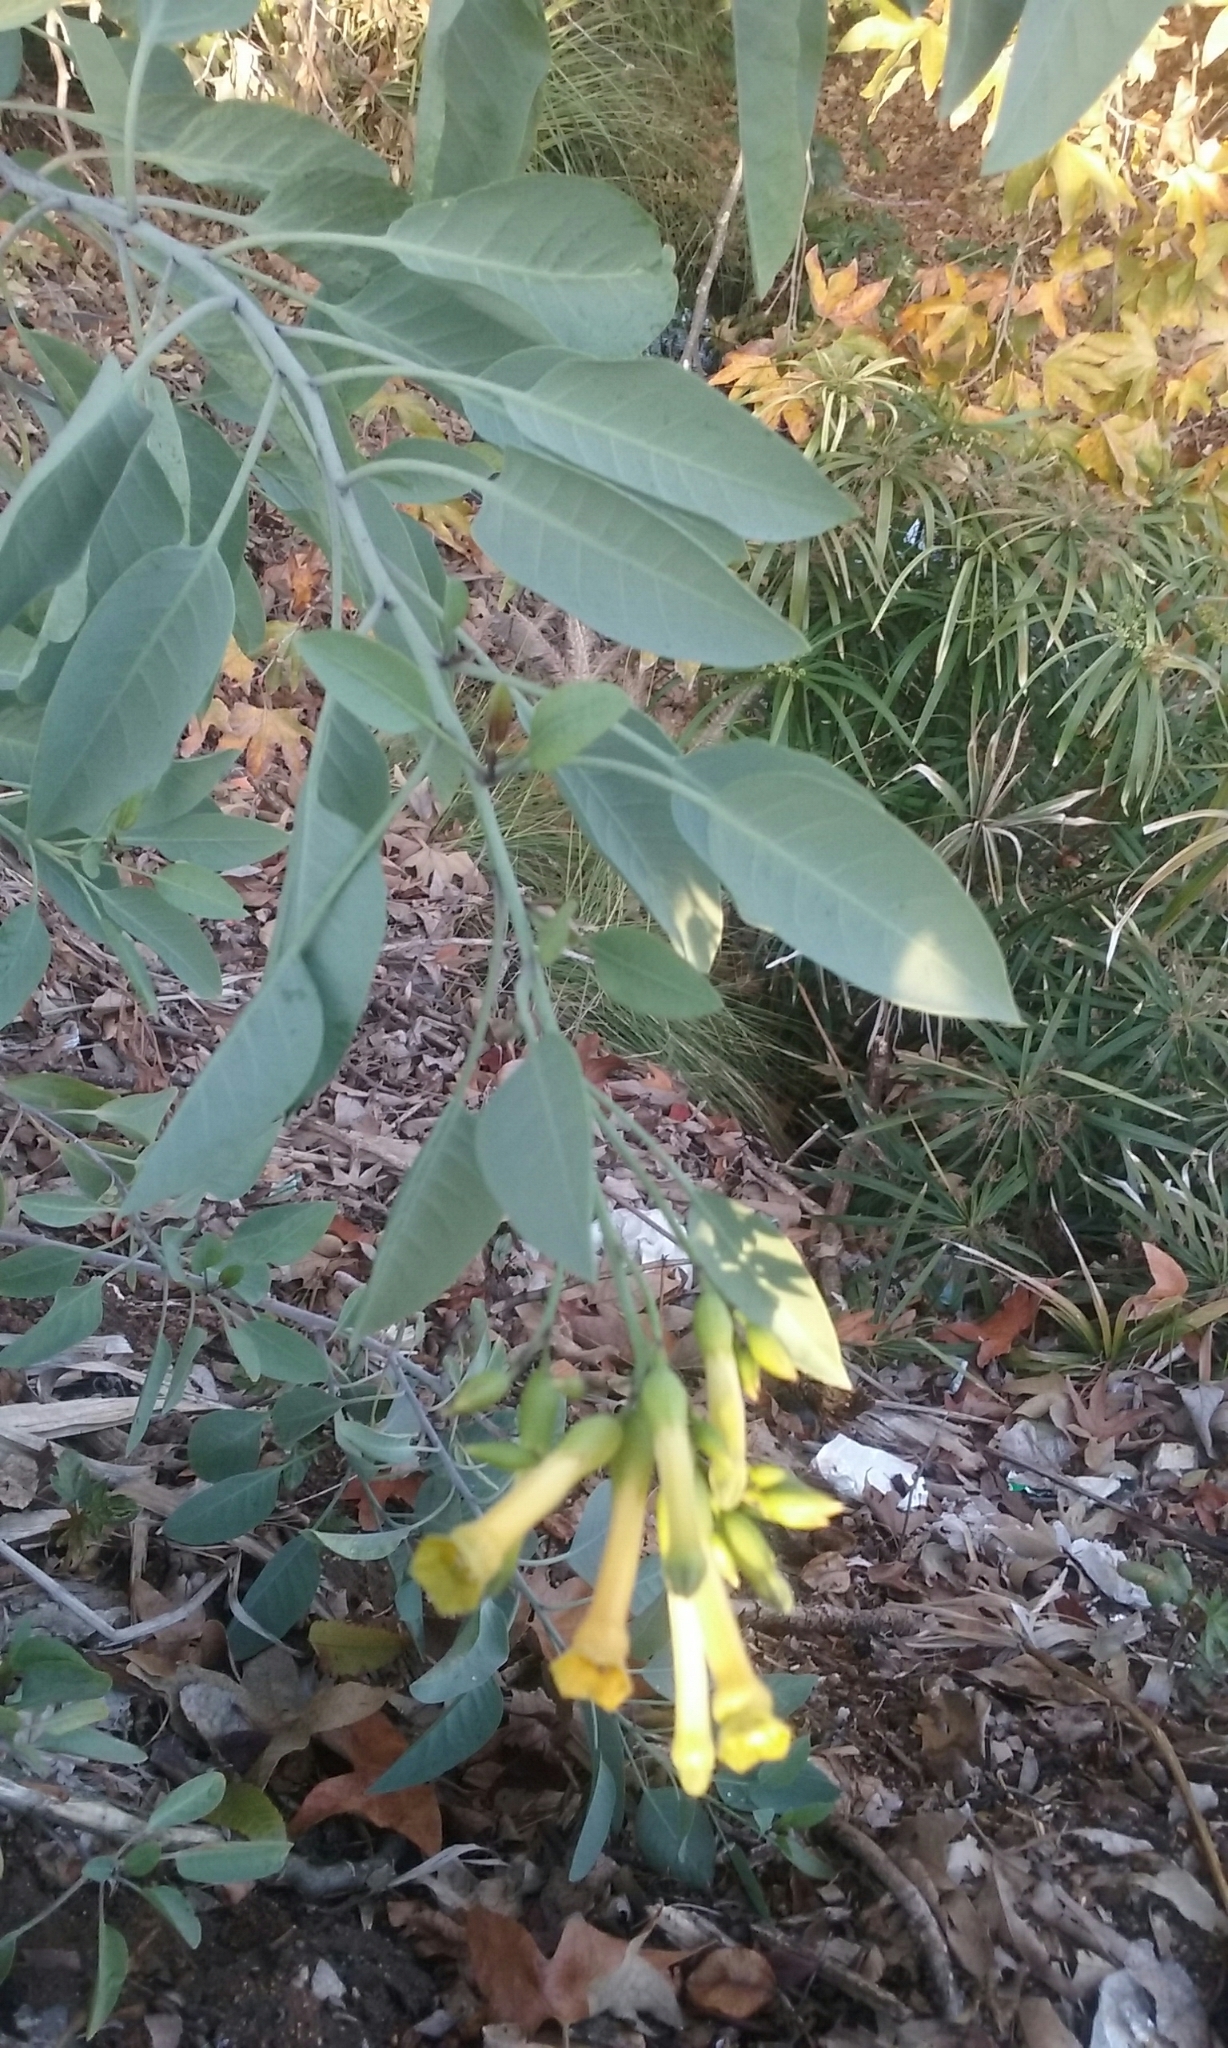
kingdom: Plantae
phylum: Tracheophyta
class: Magnoliopsida
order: Solanales
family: Solanaceae
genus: Nicotiana
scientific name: Nicotiana glauca
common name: Tree tobacco
